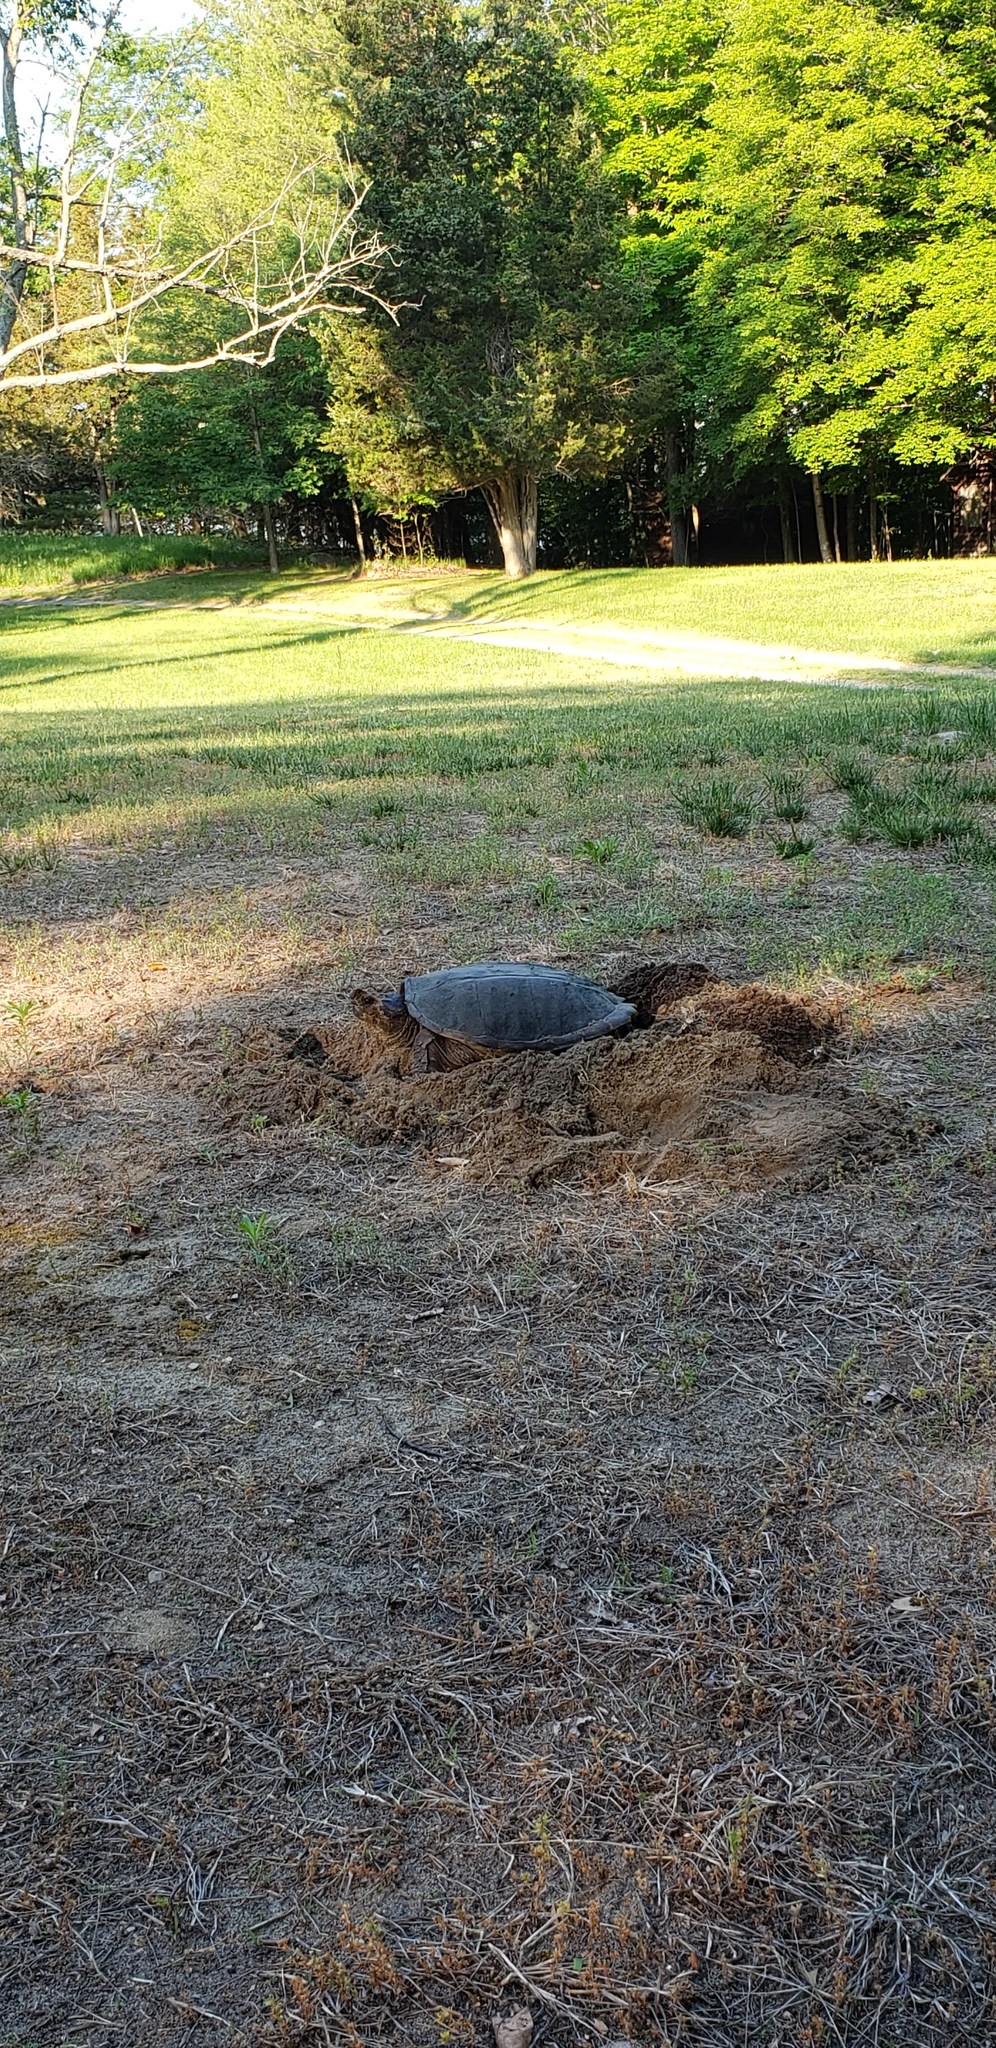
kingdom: Animalia
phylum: Chordata
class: Testudines
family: Chelydridae
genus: Chelydra
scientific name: Chelydra serpentina
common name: Common snapping turtle
